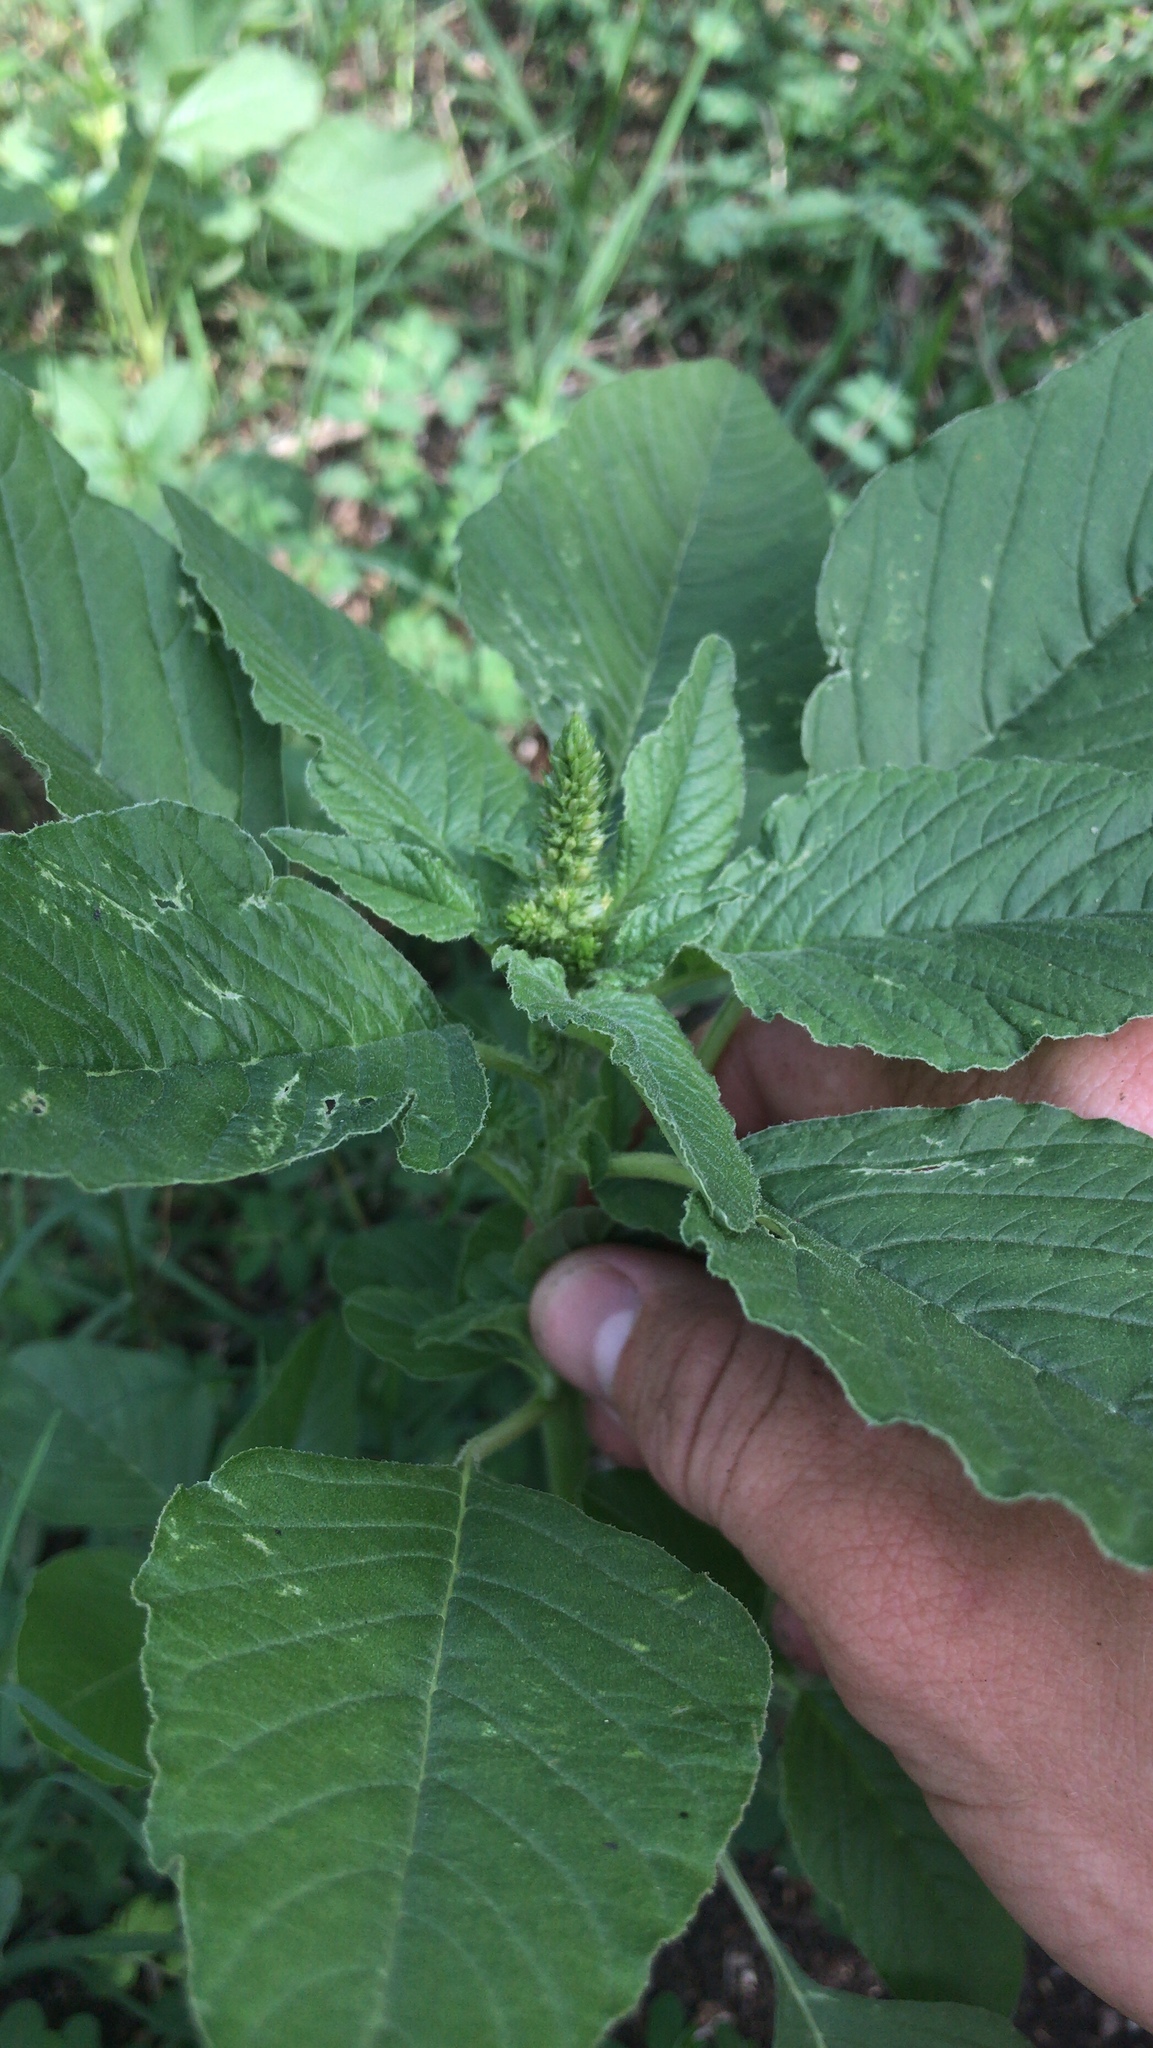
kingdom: Plantae
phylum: Tracheophyta
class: Magnoliopsida
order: Caryophyllales
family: Amaranthaceae
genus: Amaranthus
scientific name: Amaranthus retroflexus
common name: Redroot amaranth
